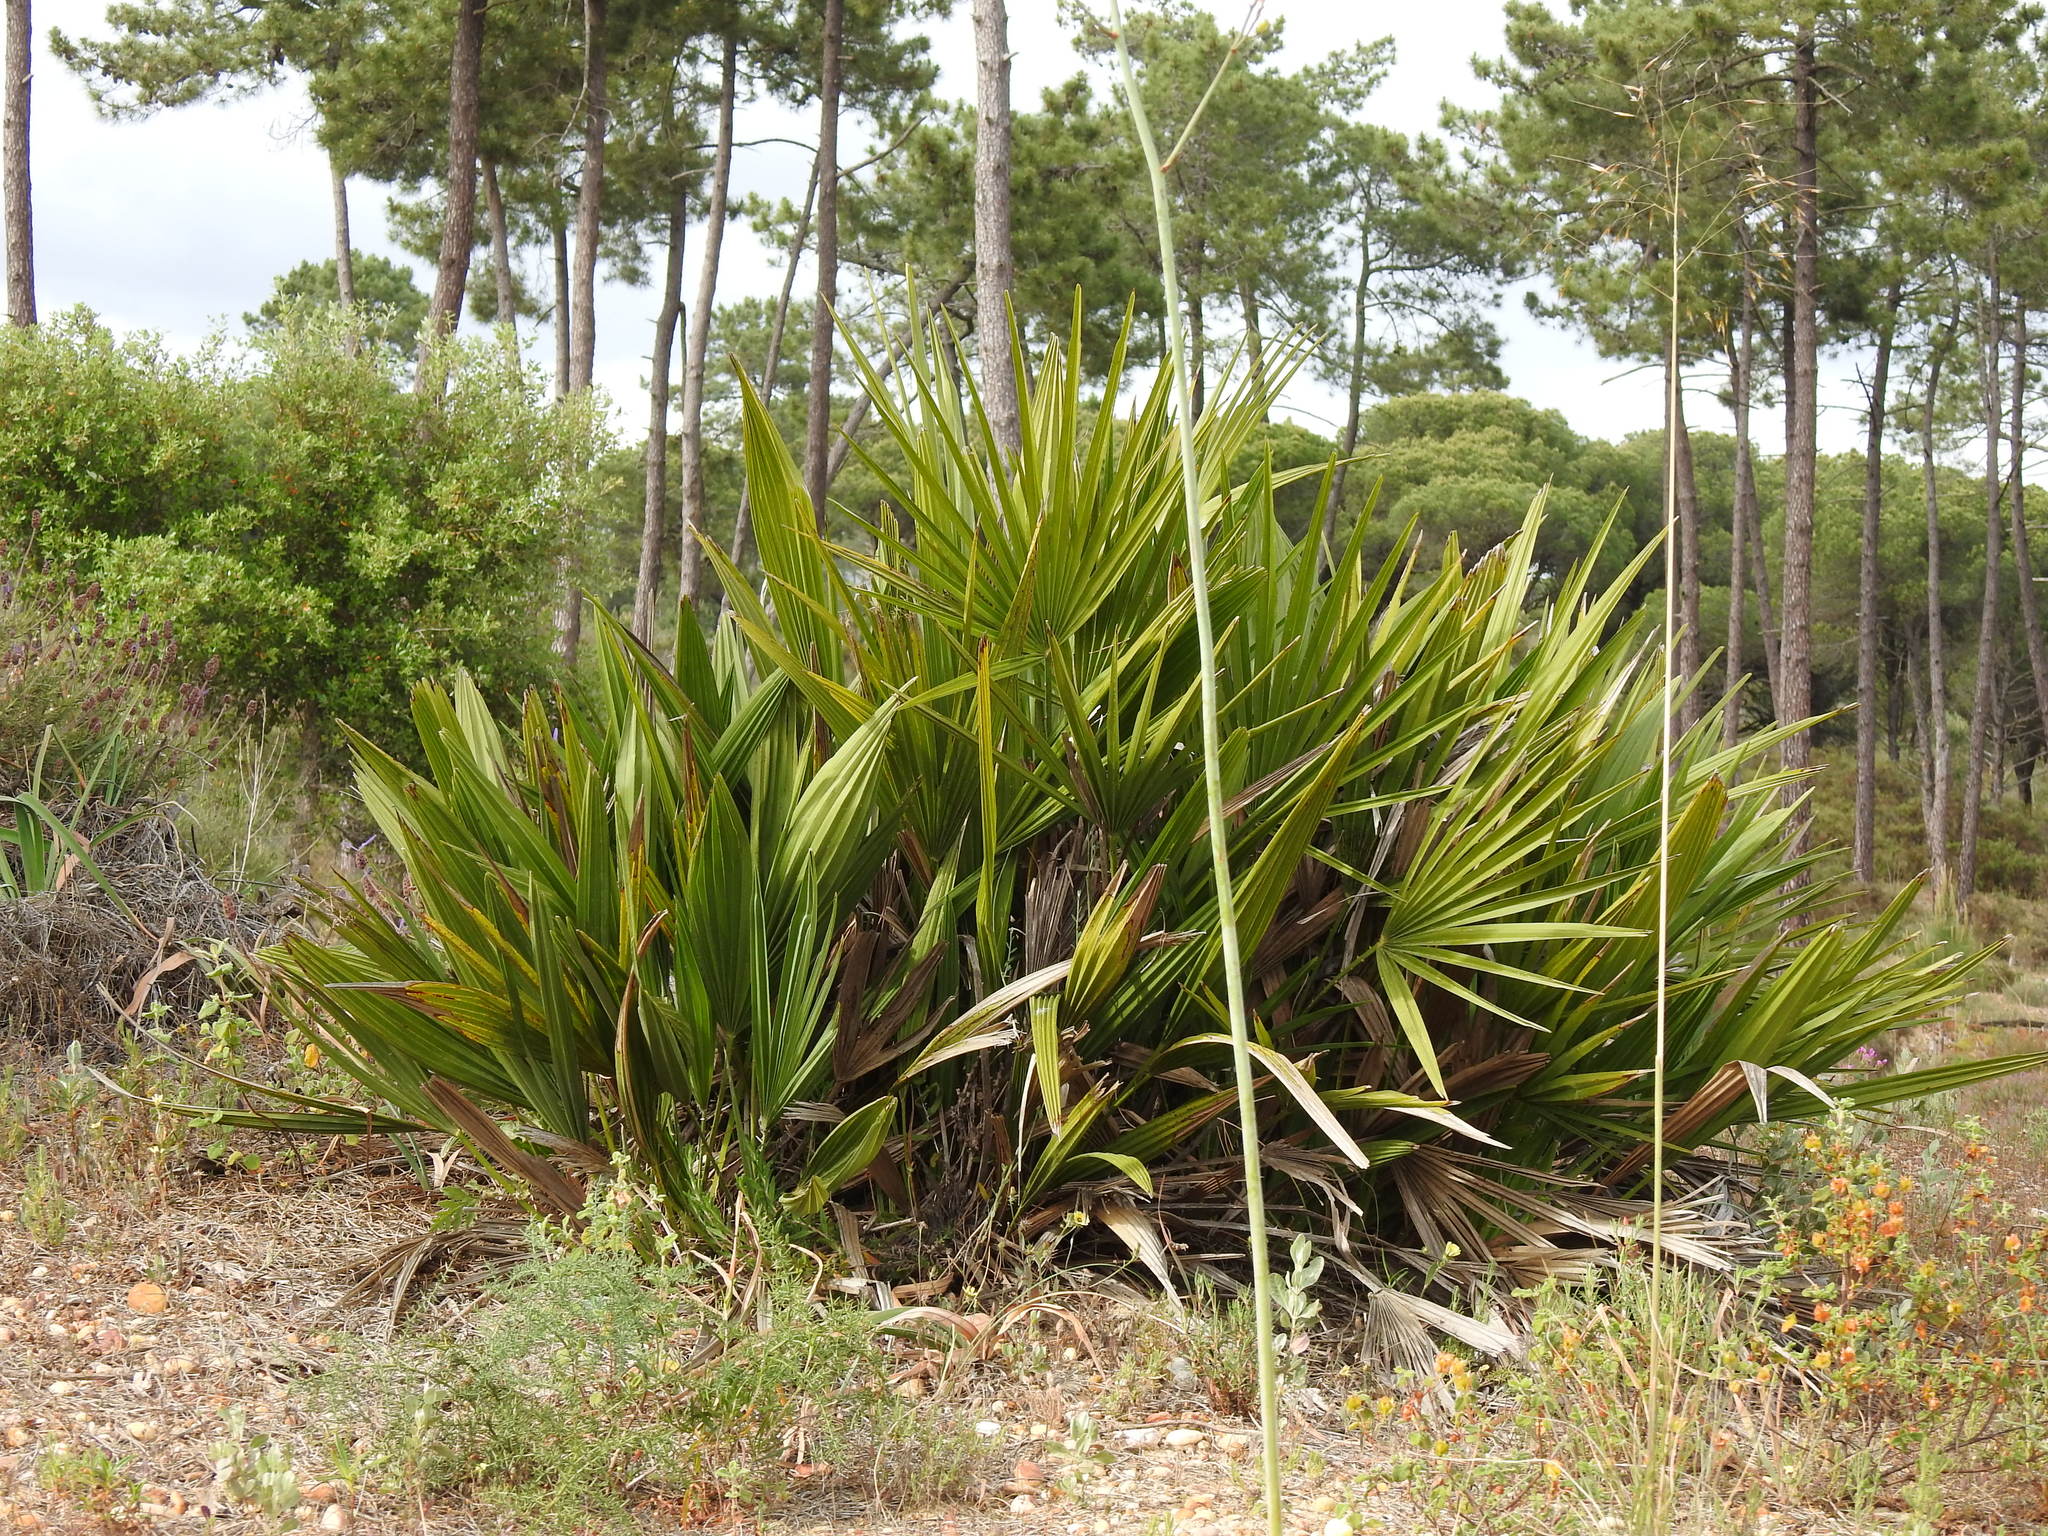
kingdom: Plantae
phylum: Tracheophyta
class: Liliopsida
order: Arecales
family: Arecaceae
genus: Chamaerops
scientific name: Chamaerops humilis
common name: Dwarf fan palm
